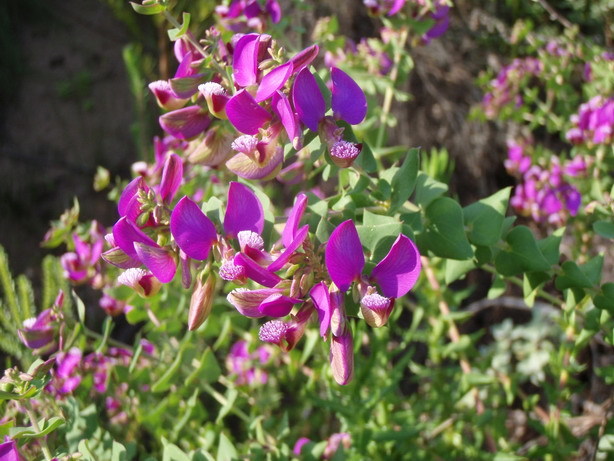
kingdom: Plantae
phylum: Tracheophyta
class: Magnoliopsida
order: Fabales
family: Polygalaceae
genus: Polygala
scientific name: Polygala fruticosa
